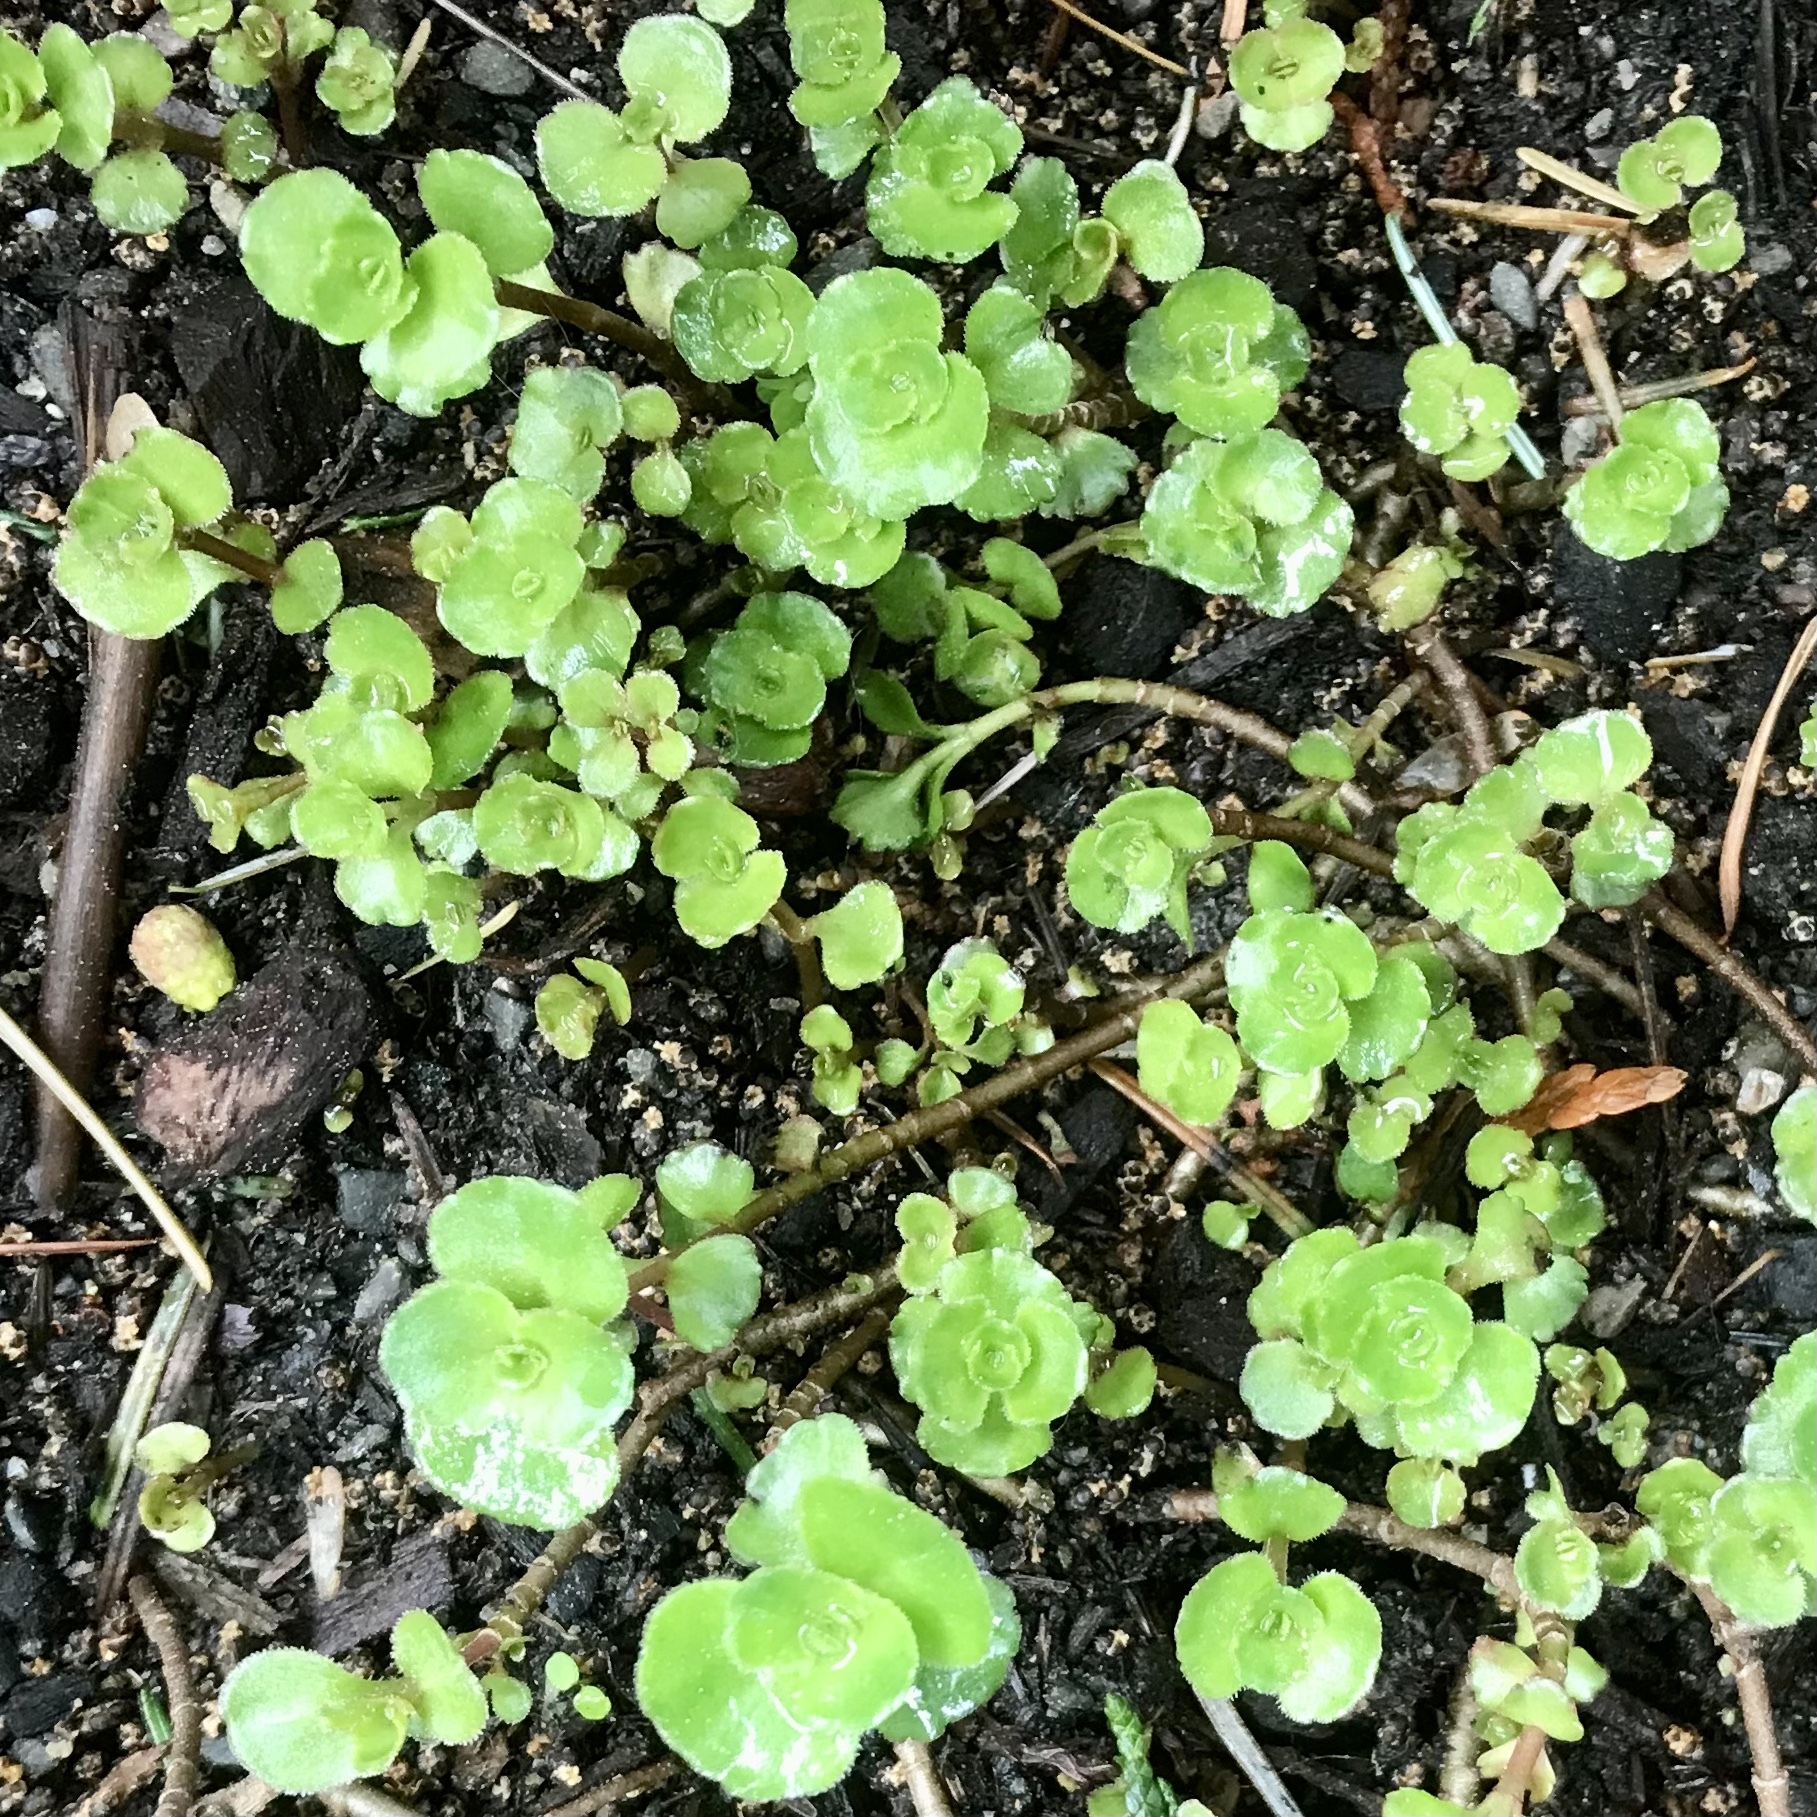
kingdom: Plantae
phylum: Tracheophyta
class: Magnoliopsida
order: Saxifragales
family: Crassulaceae
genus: Phedimus
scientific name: Phedimus spurius
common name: Caucasian stonecrop
